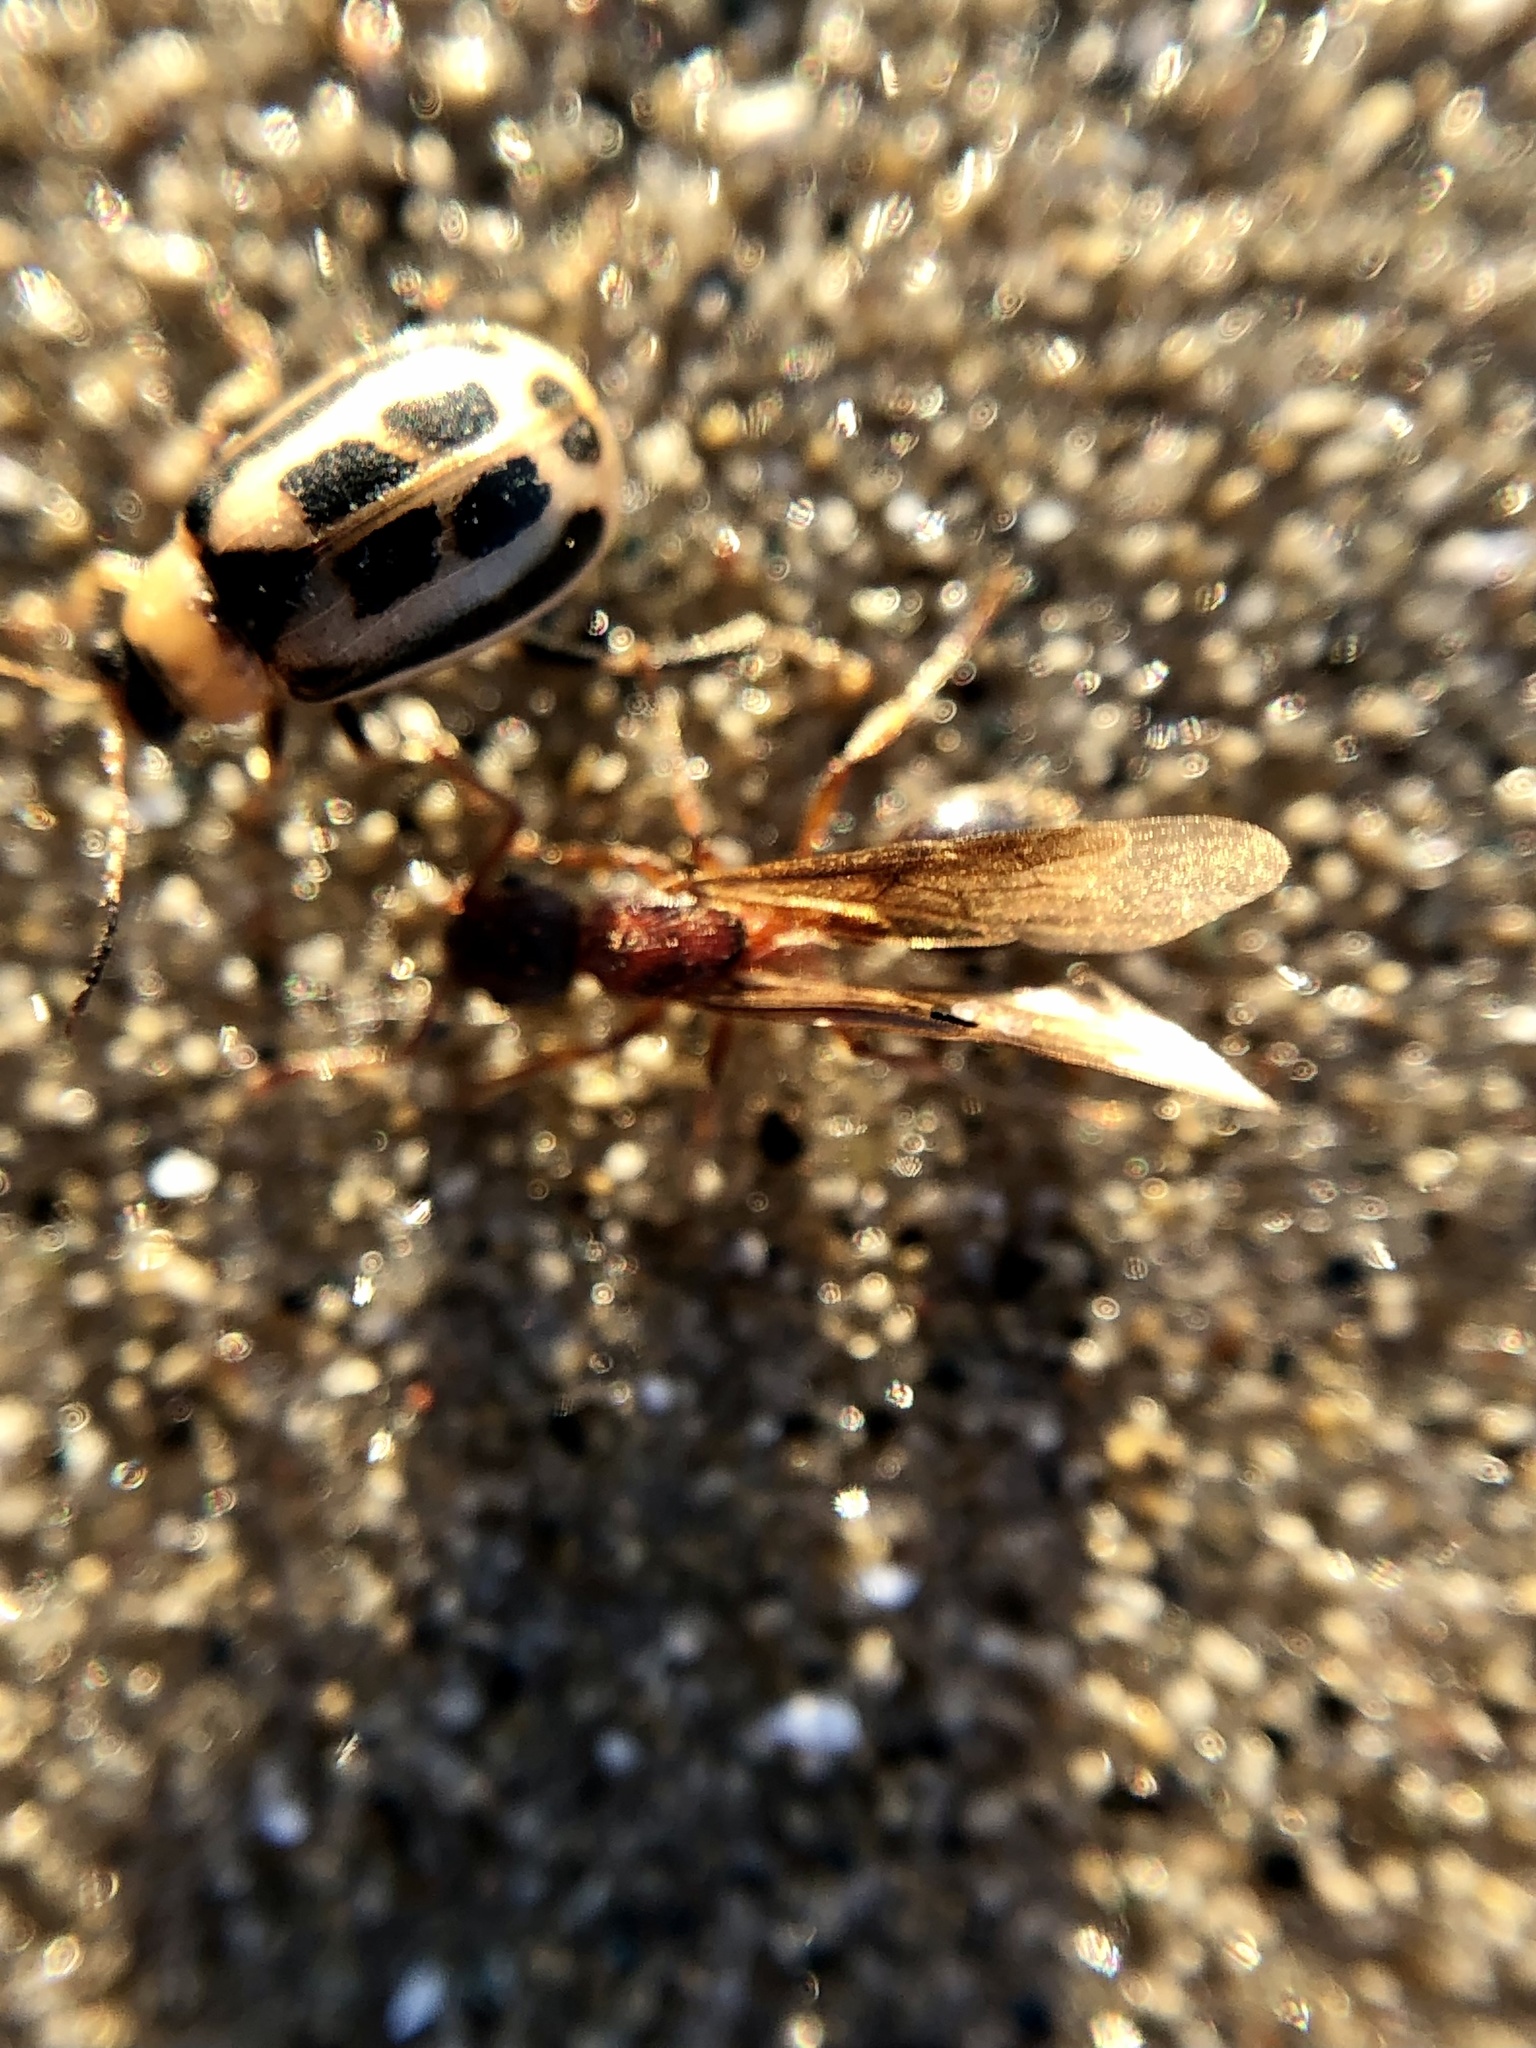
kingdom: Animalia
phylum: Arthropoda
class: Insecta
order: Coleoptera
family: Chrysomelidae
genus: Cerotoma
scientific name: Cerotoma trifurcata
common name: Bean leaf beetle
